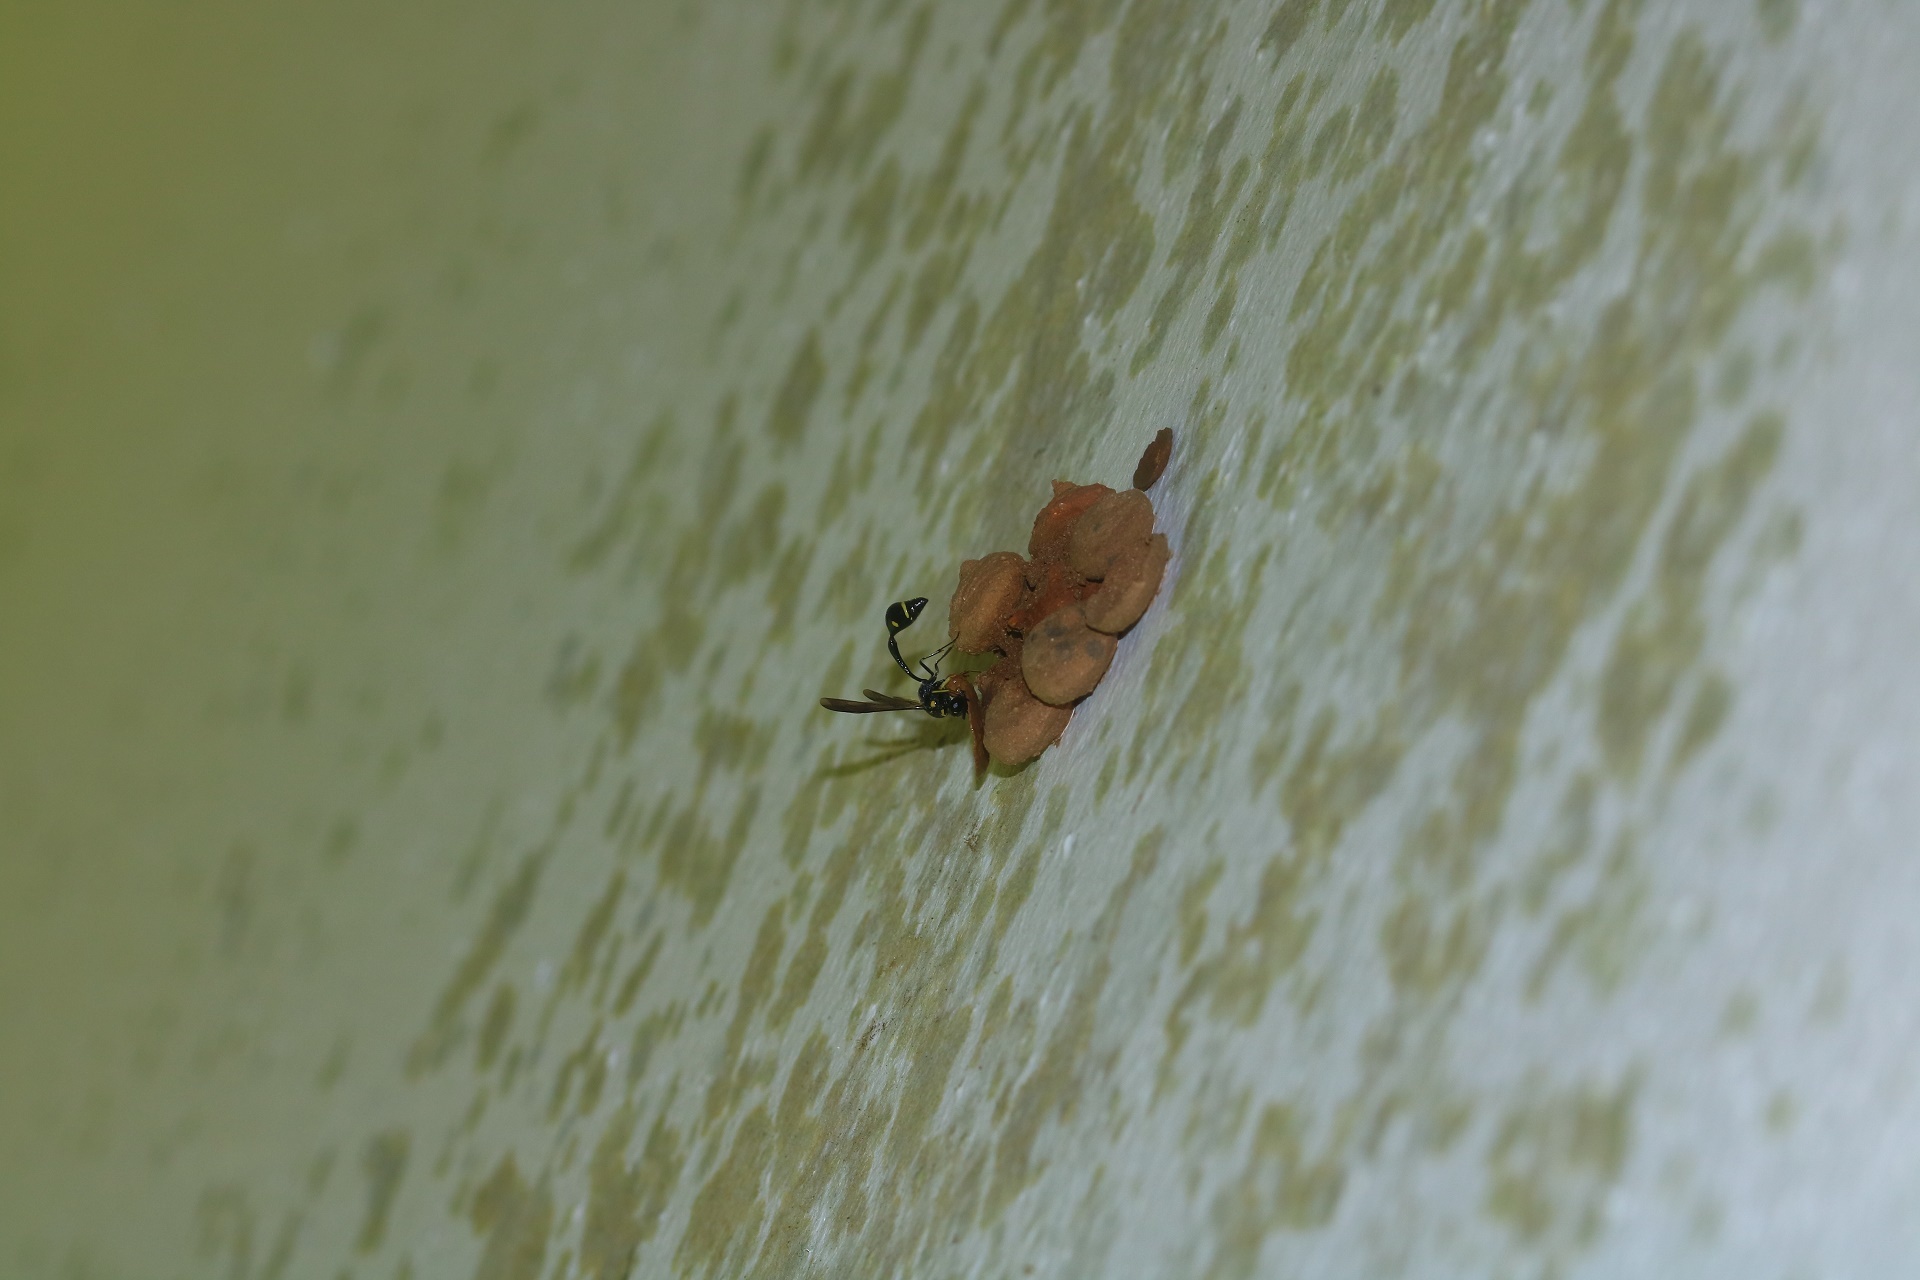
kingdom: Animalia
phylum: Arthropoda
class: Insecta
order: Hymenoptera
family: Eumenidae
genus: Omicroides
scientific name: Omicroides singularis
